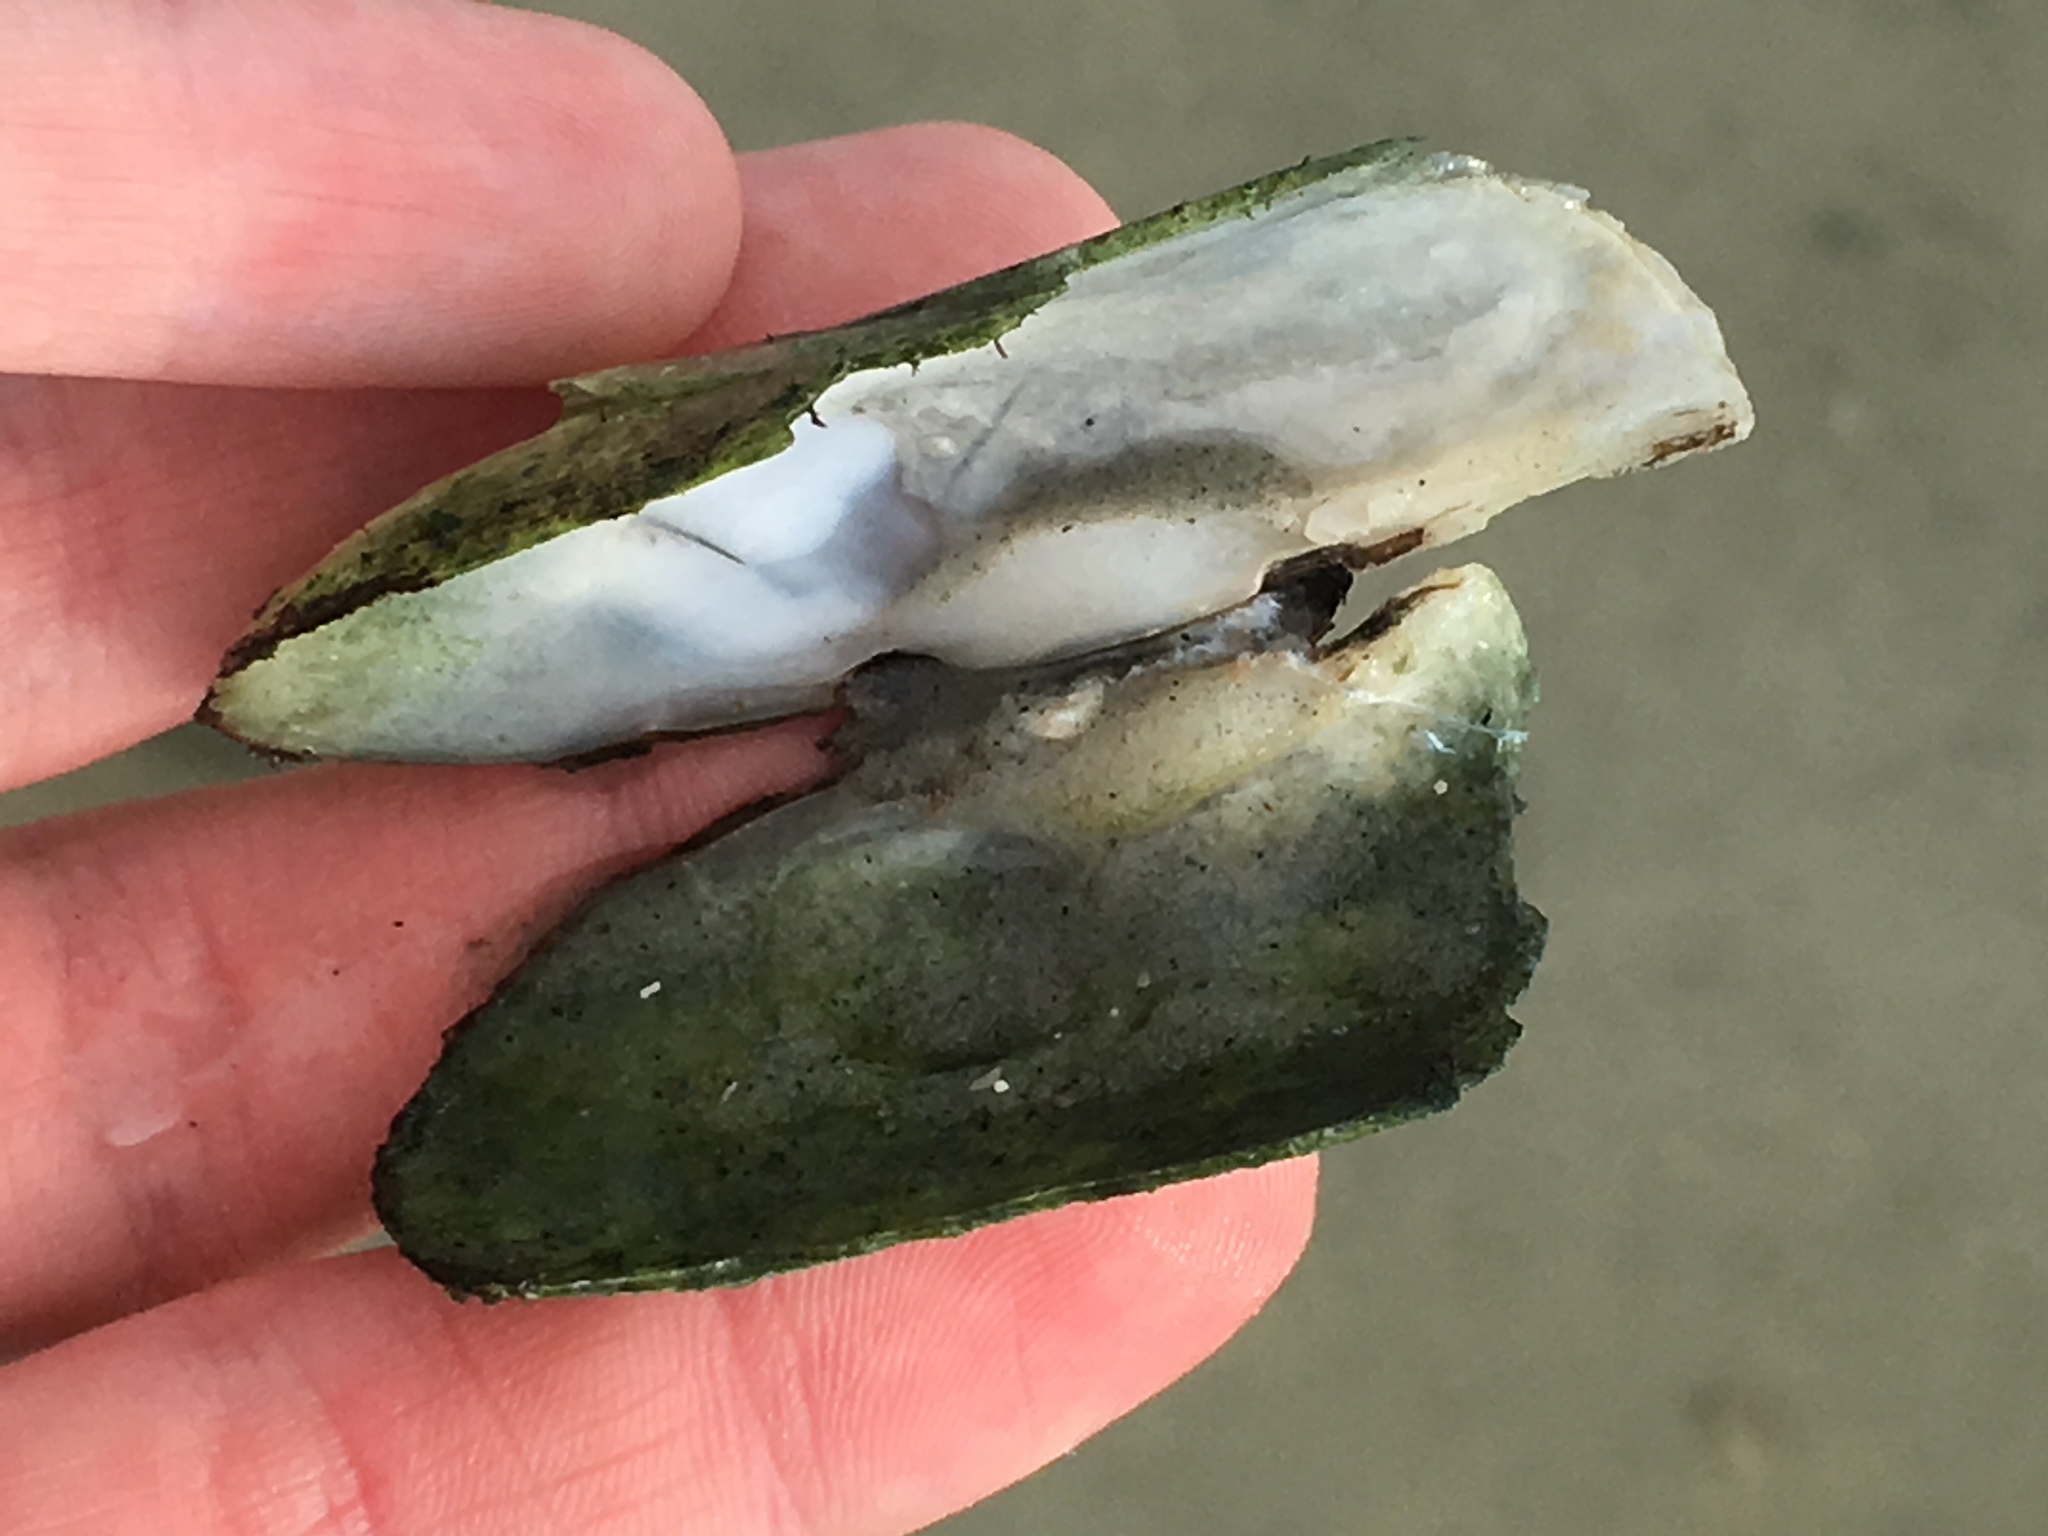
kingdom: Animalia
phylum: Mollusca
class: Bivalvia
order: Cardiida
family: Solecurtidae
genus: Tagelus
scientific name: Tagelus plebeius
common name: Stout tagelus
